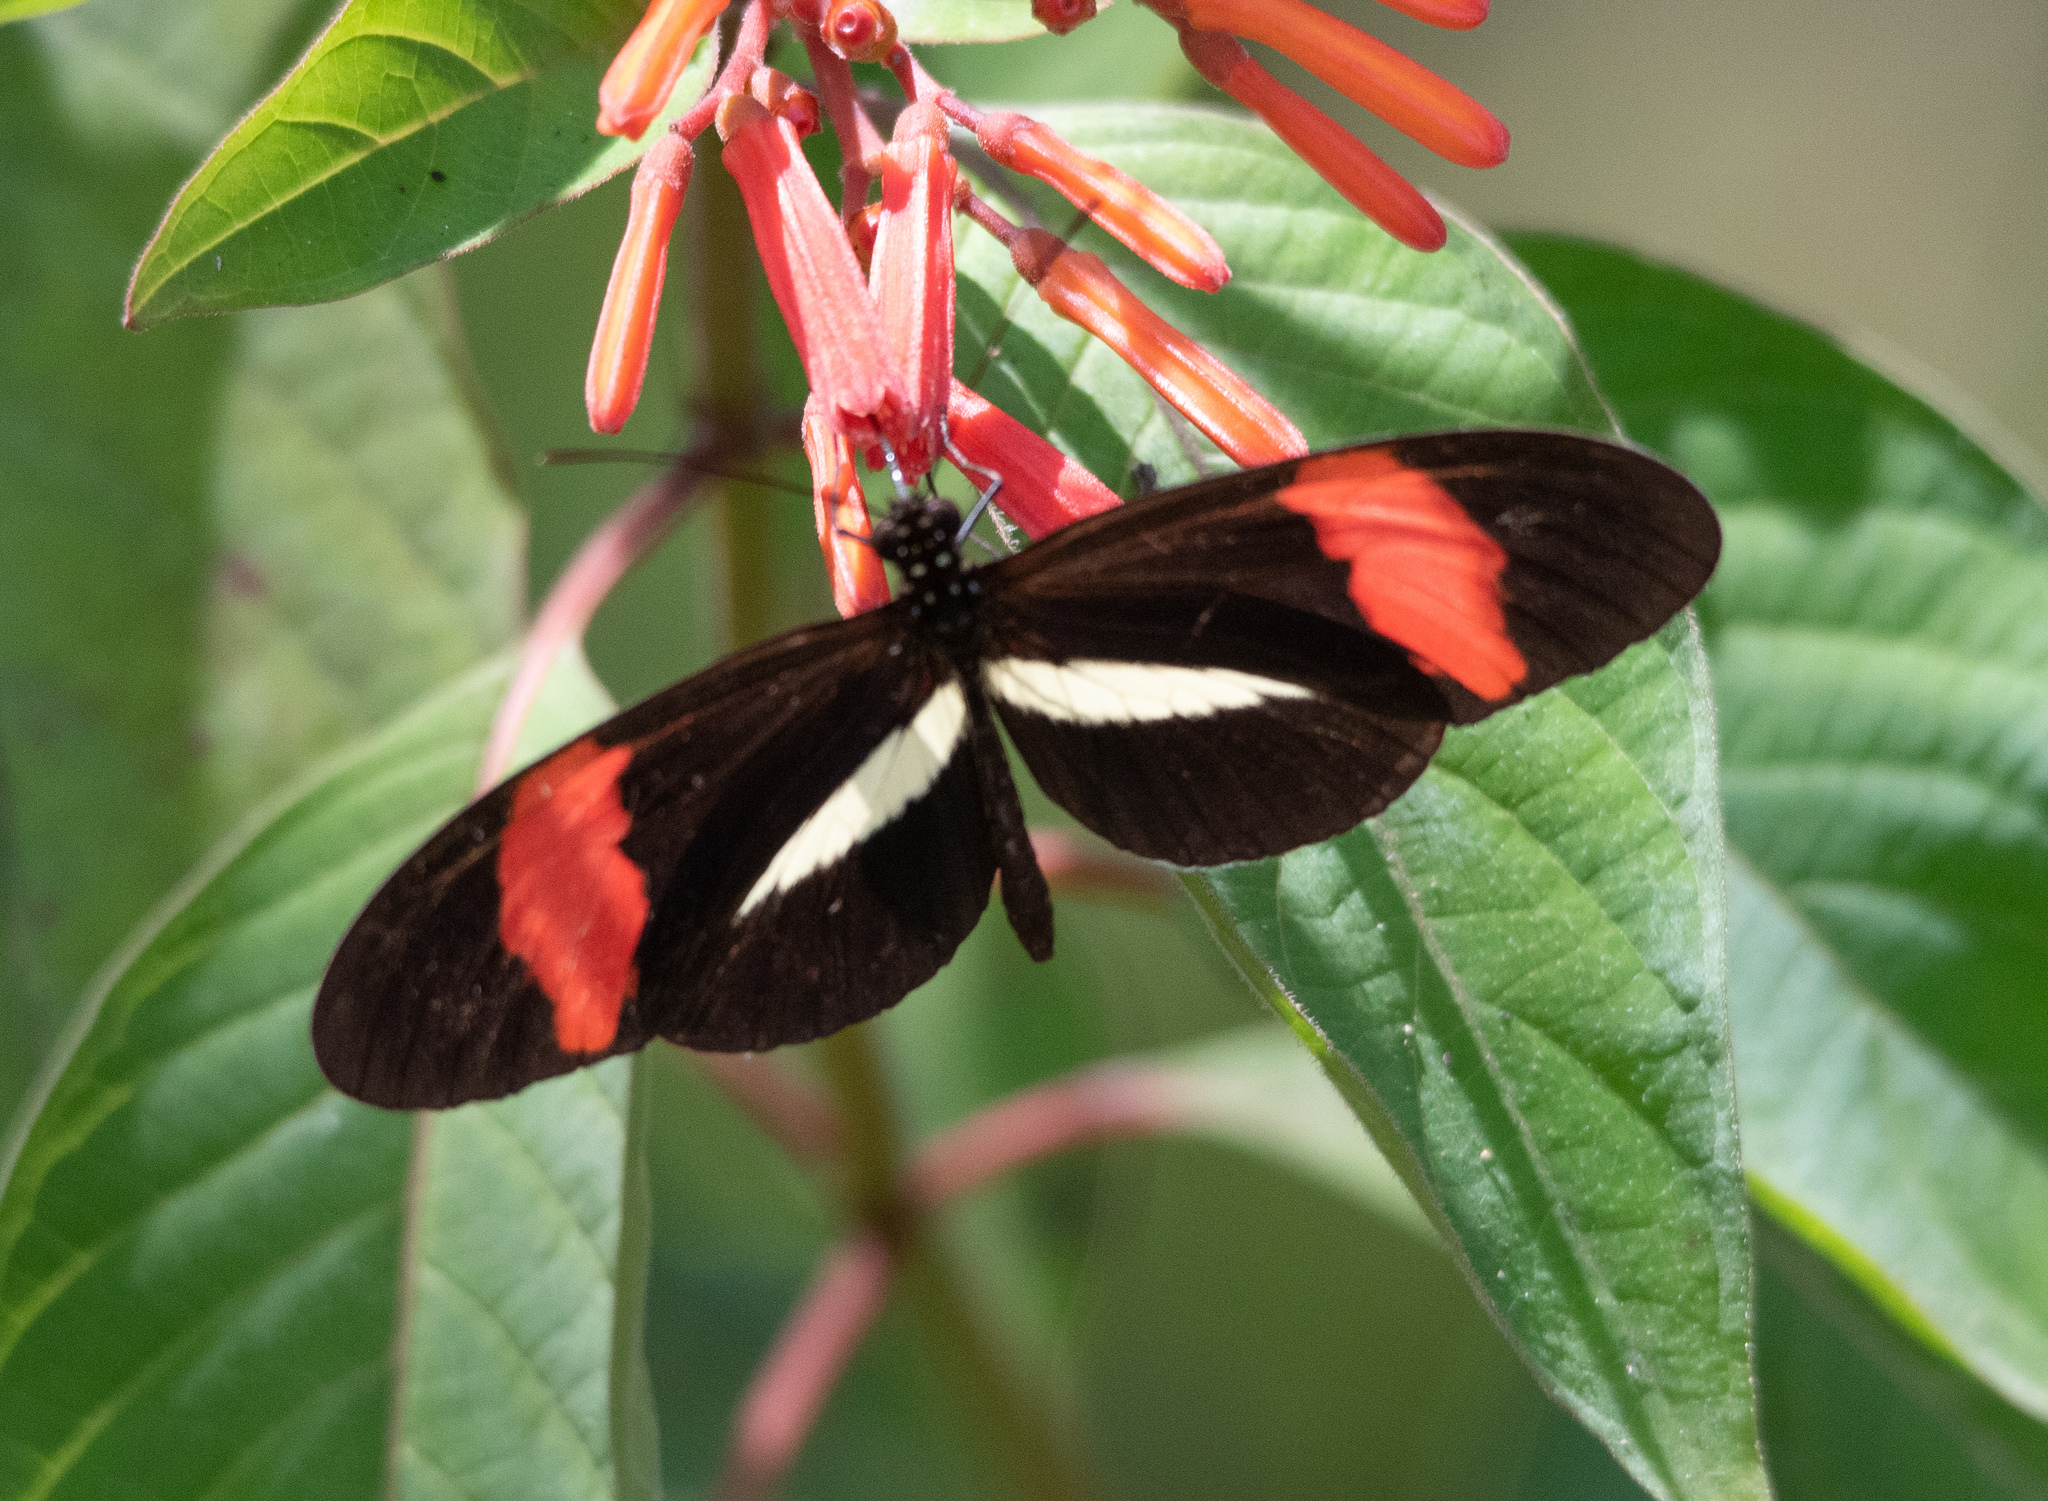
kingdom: Animalia
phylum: Arthropoda
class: Insecta
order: Lepidoptera
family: Nymphalidae
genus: Heliconius
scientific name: Heliconius erato
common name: Common patch longwing
